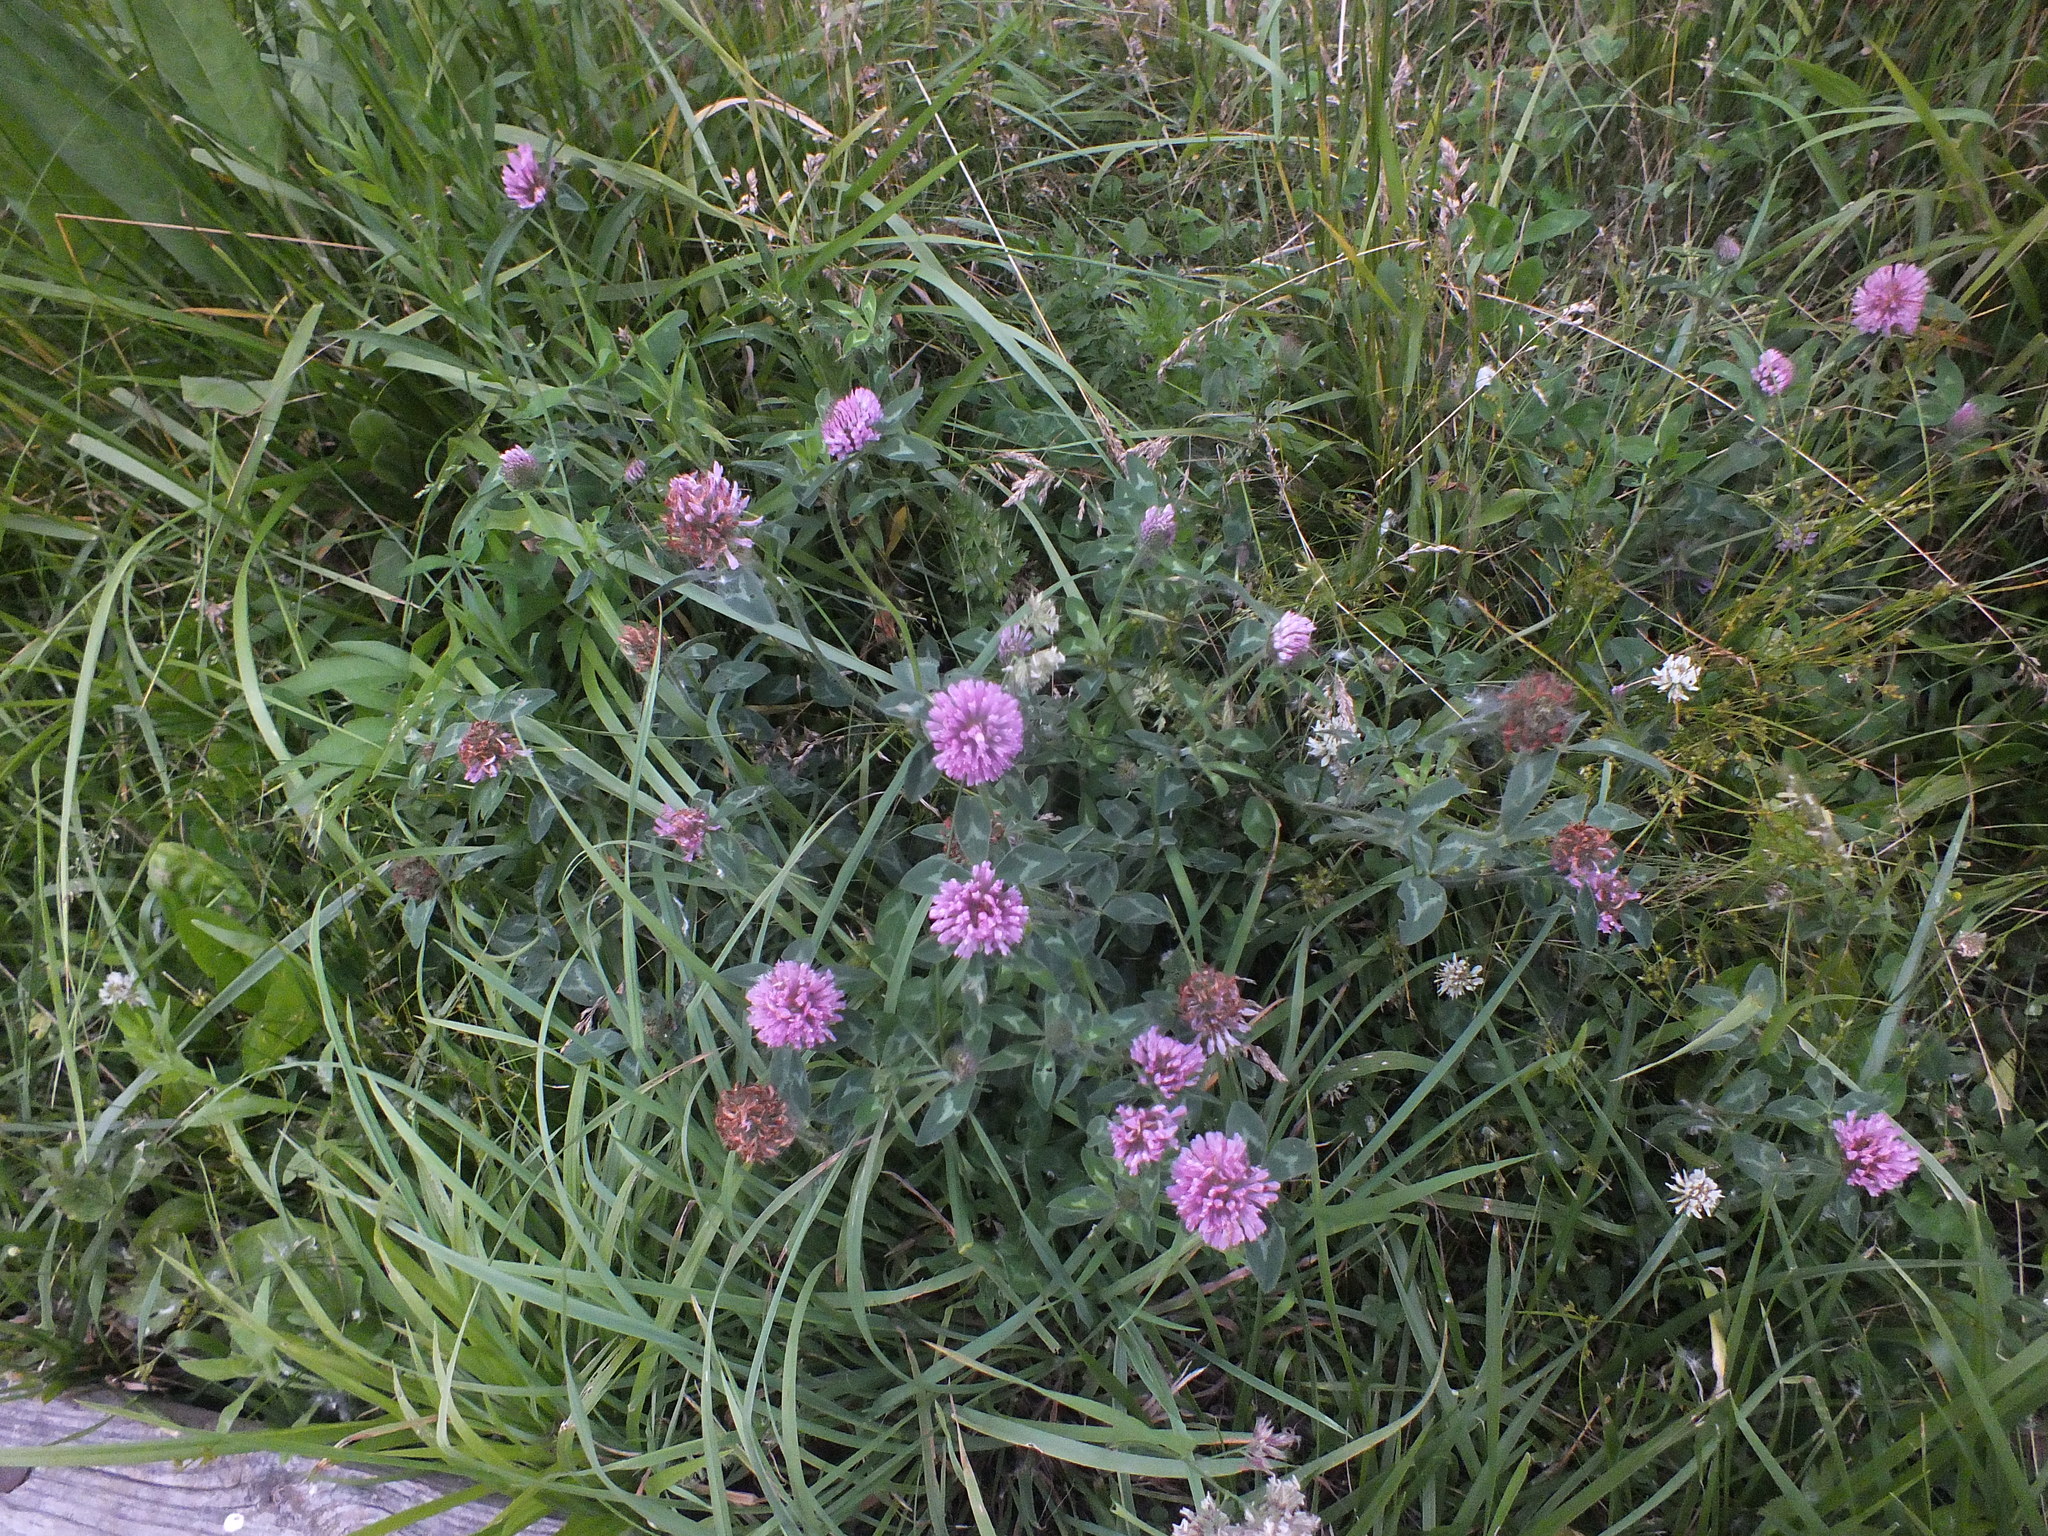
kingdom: Plantae
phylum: Tracheophyta
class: Magnoliopsida
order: Fabales
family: Fabaceae
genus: Trifolium
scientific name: Trifolium pratense
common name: Red clover
